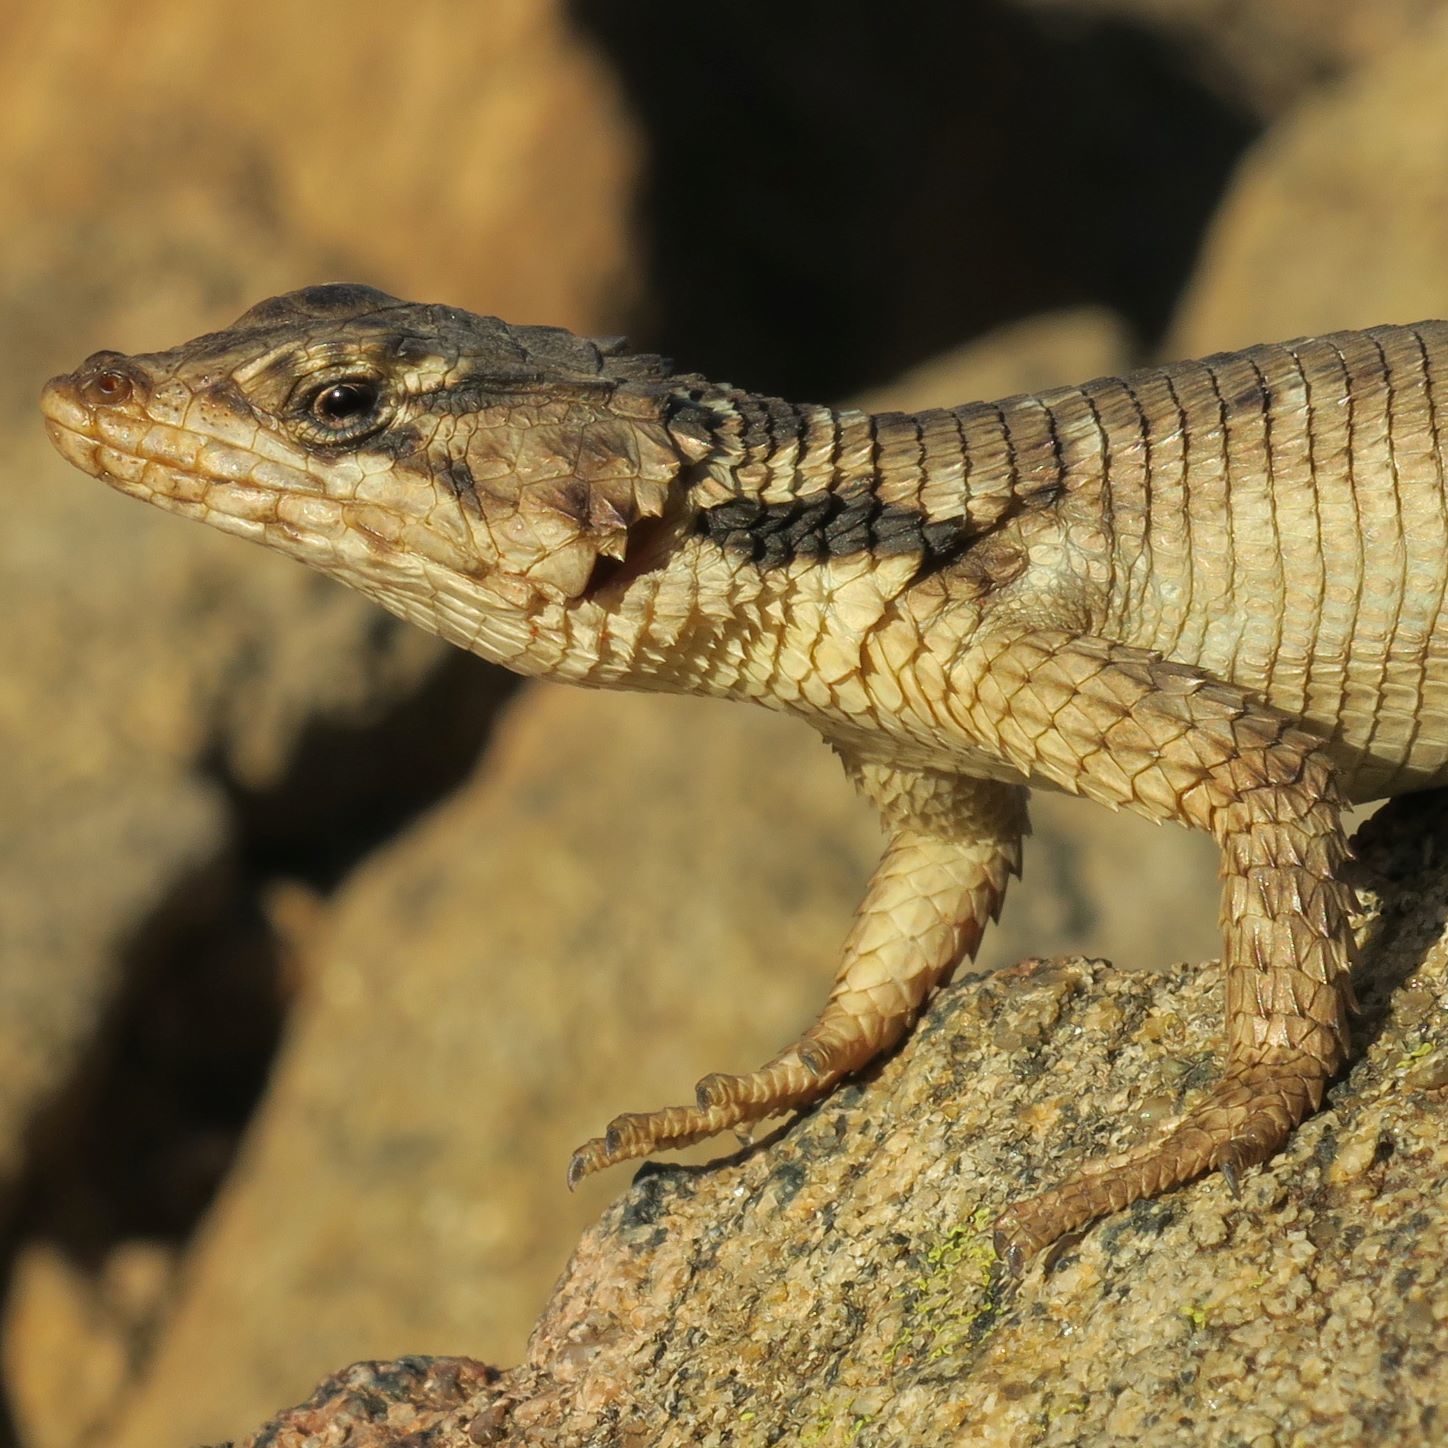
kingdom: Animalia
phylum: Chordata
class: Squamata
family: Cordylidae
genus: Karusasaurus
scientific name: Karusasaurus polyzonus
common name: Karoo girdled lizard
